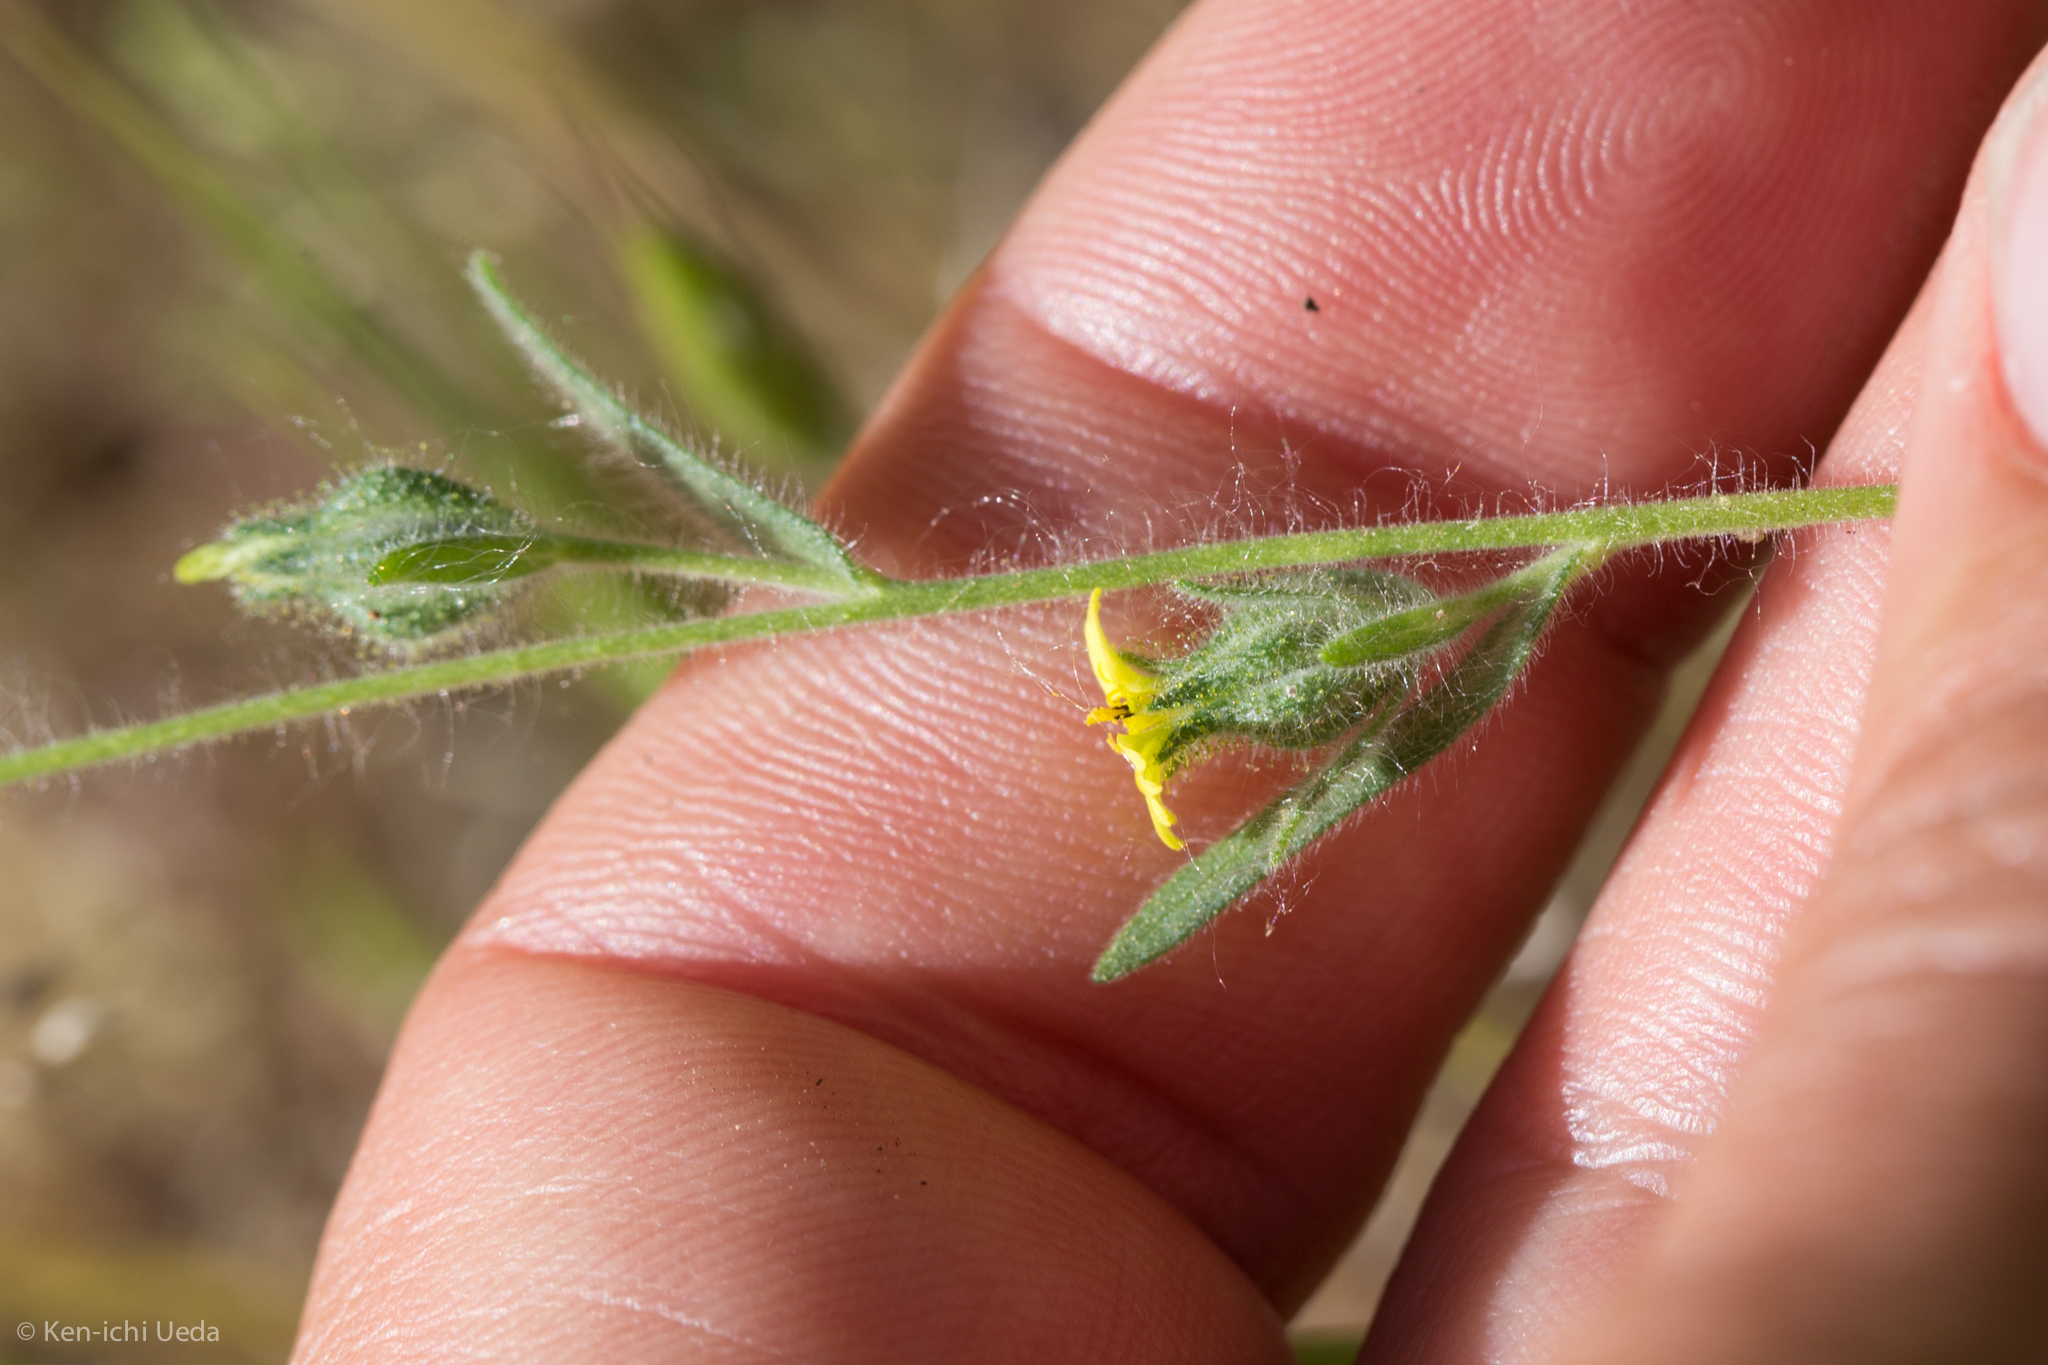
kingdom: Plantae
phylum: Tracheophyta
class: Magnoliopsida
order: Asterales
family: Asteraceae
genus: Madia
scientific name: Madia gracilis
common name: Grassy tarweed
